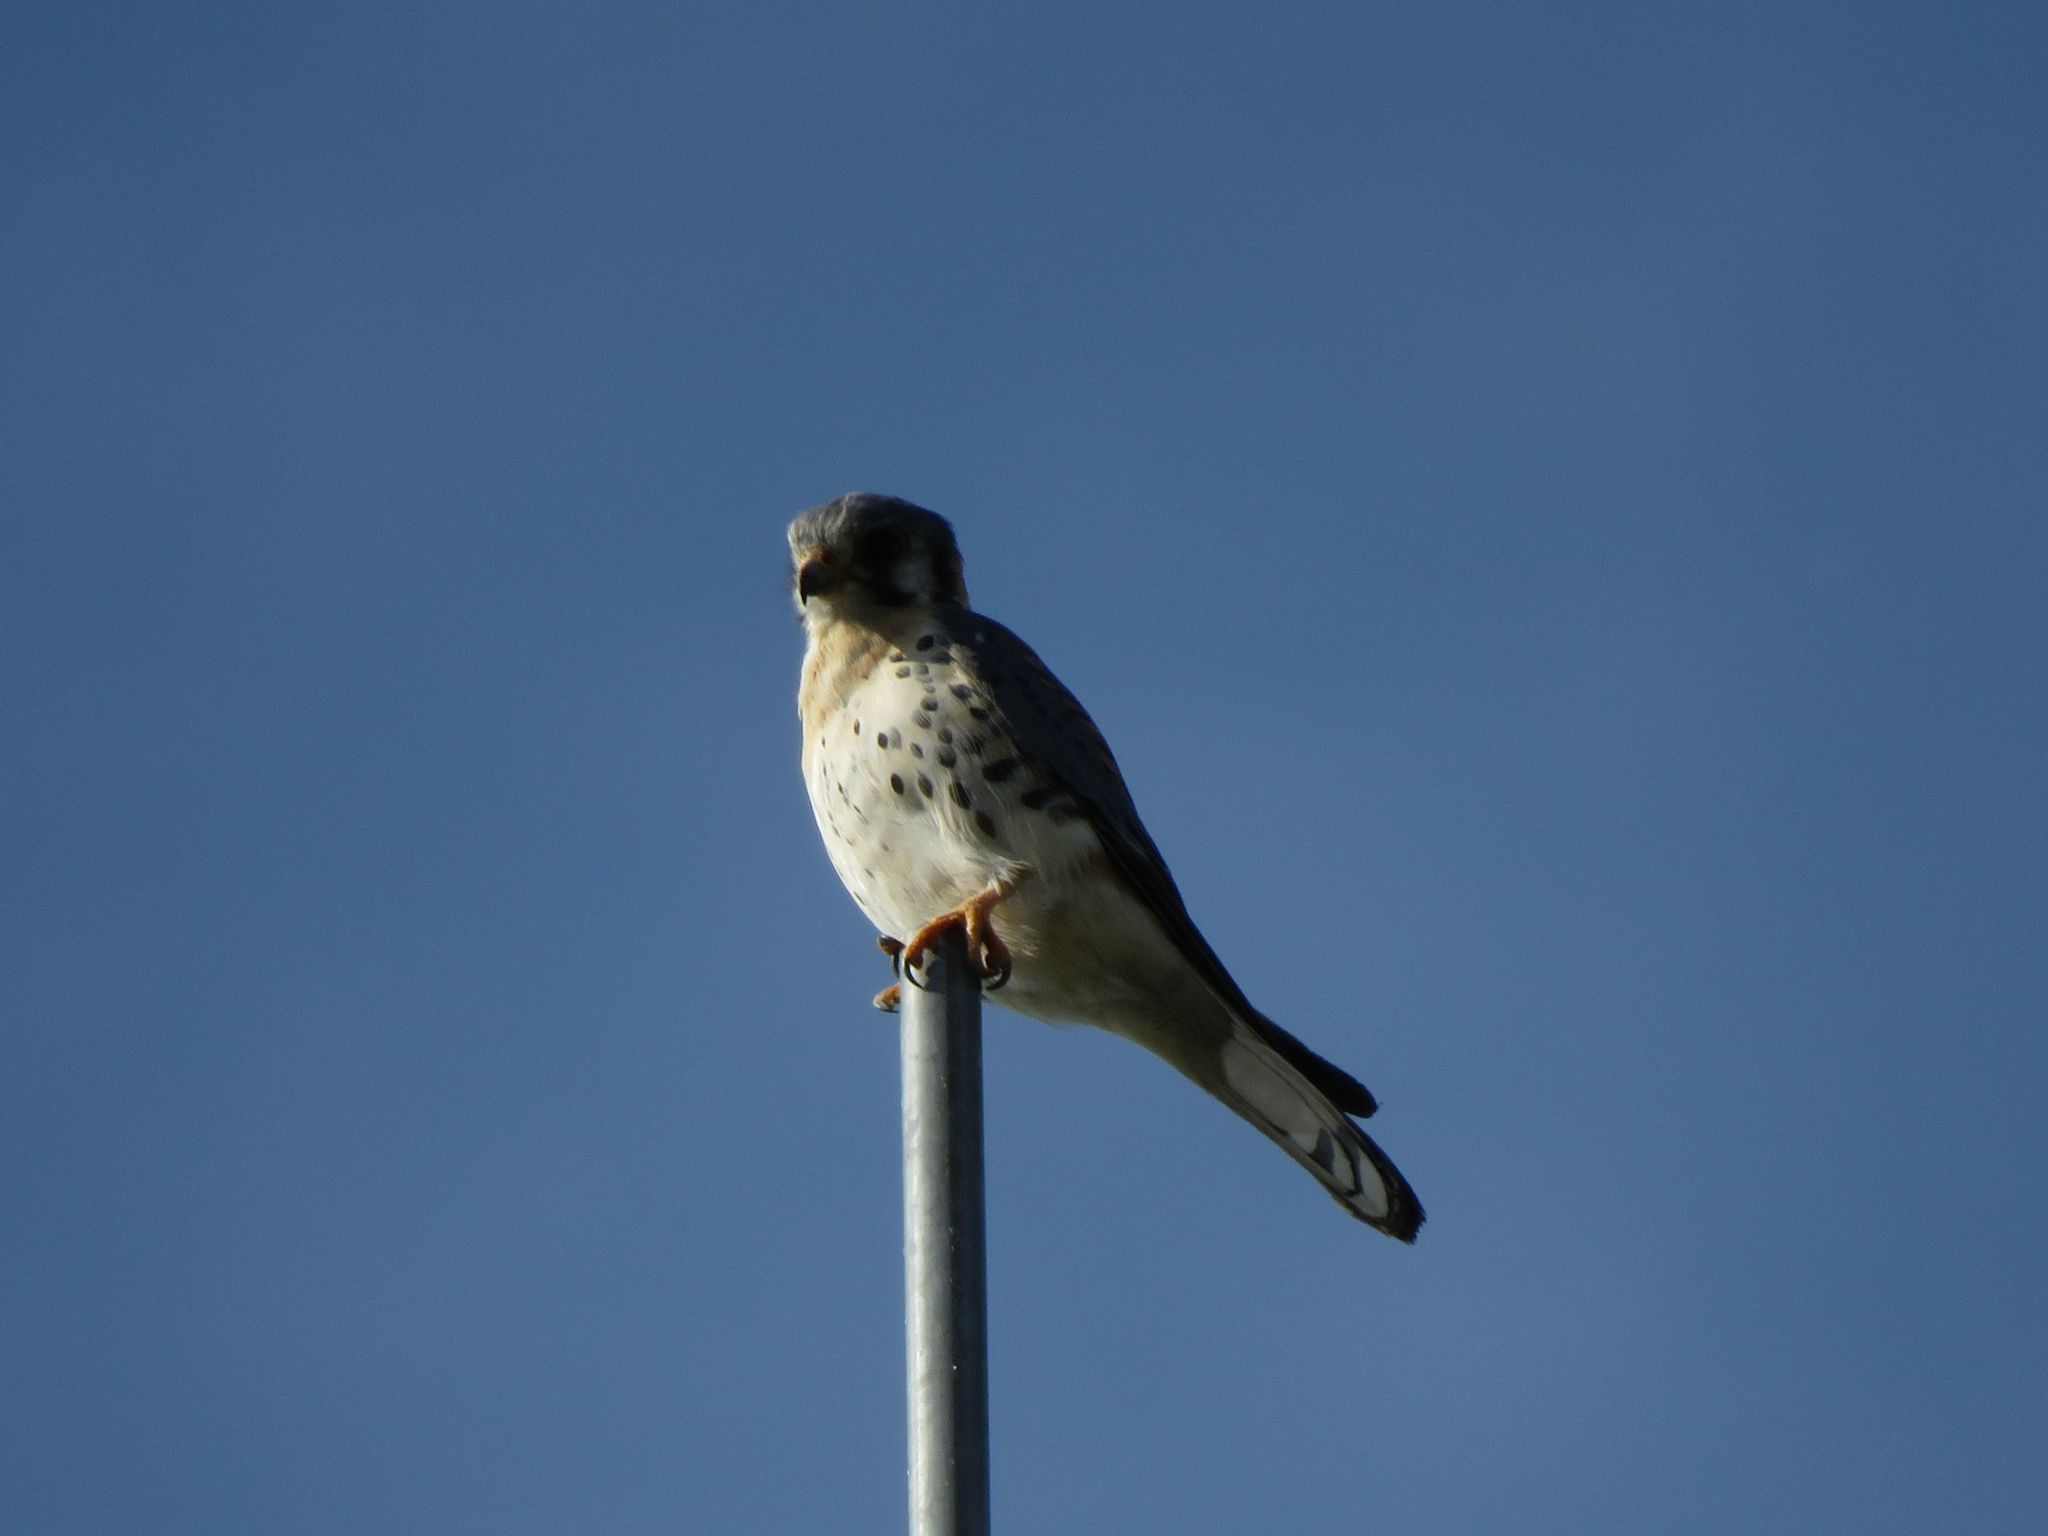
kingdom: Animalia
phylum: Chordata
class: Aves
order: Falconiformes
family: Falconidae
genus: Falco
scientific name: Falco sparverius
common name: American kestrel
